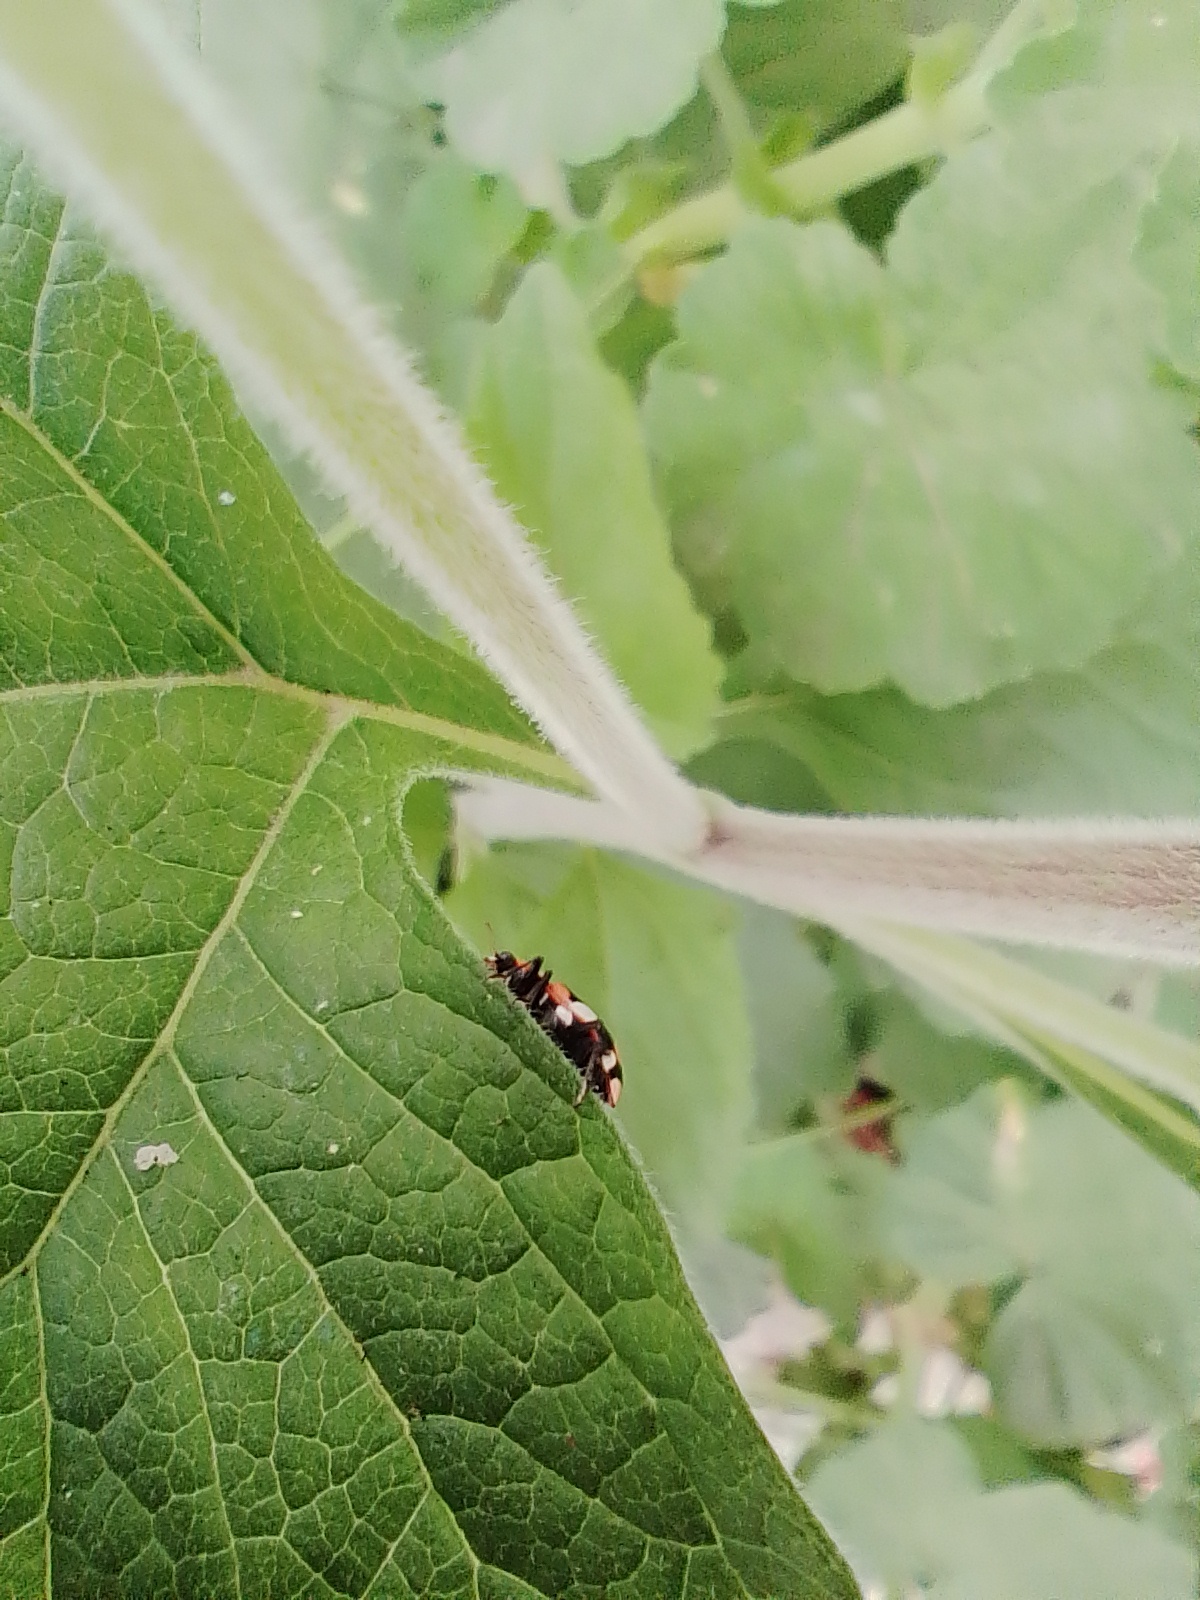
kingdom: Animalia
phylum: Arthropoda
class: Insecta
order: Coleoptera
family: Coccinellidae
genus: Eriopis
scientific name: Eriopis connexa
